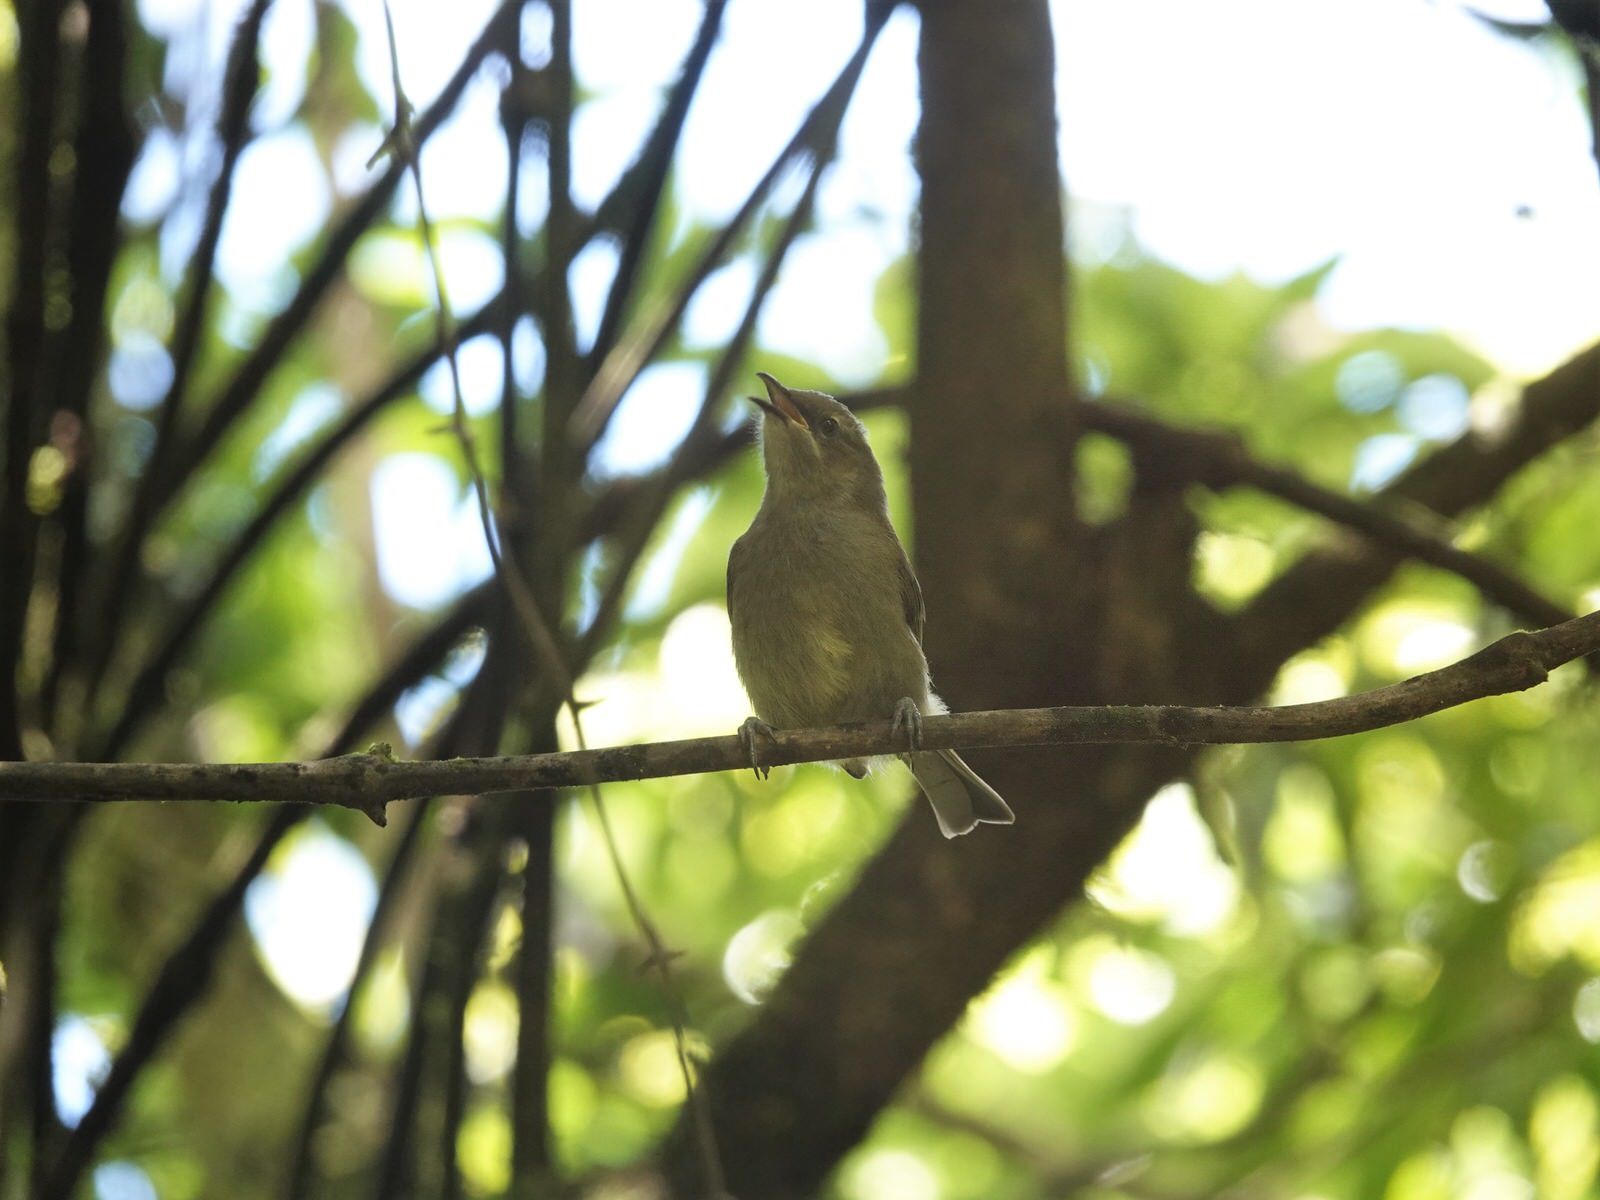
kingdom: Animalia
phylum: Chordata
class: Aves
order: Passeriformes
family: Meliphagidae
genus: Anthornis
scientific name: Anthornis melanura
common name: New zealand bellbird
